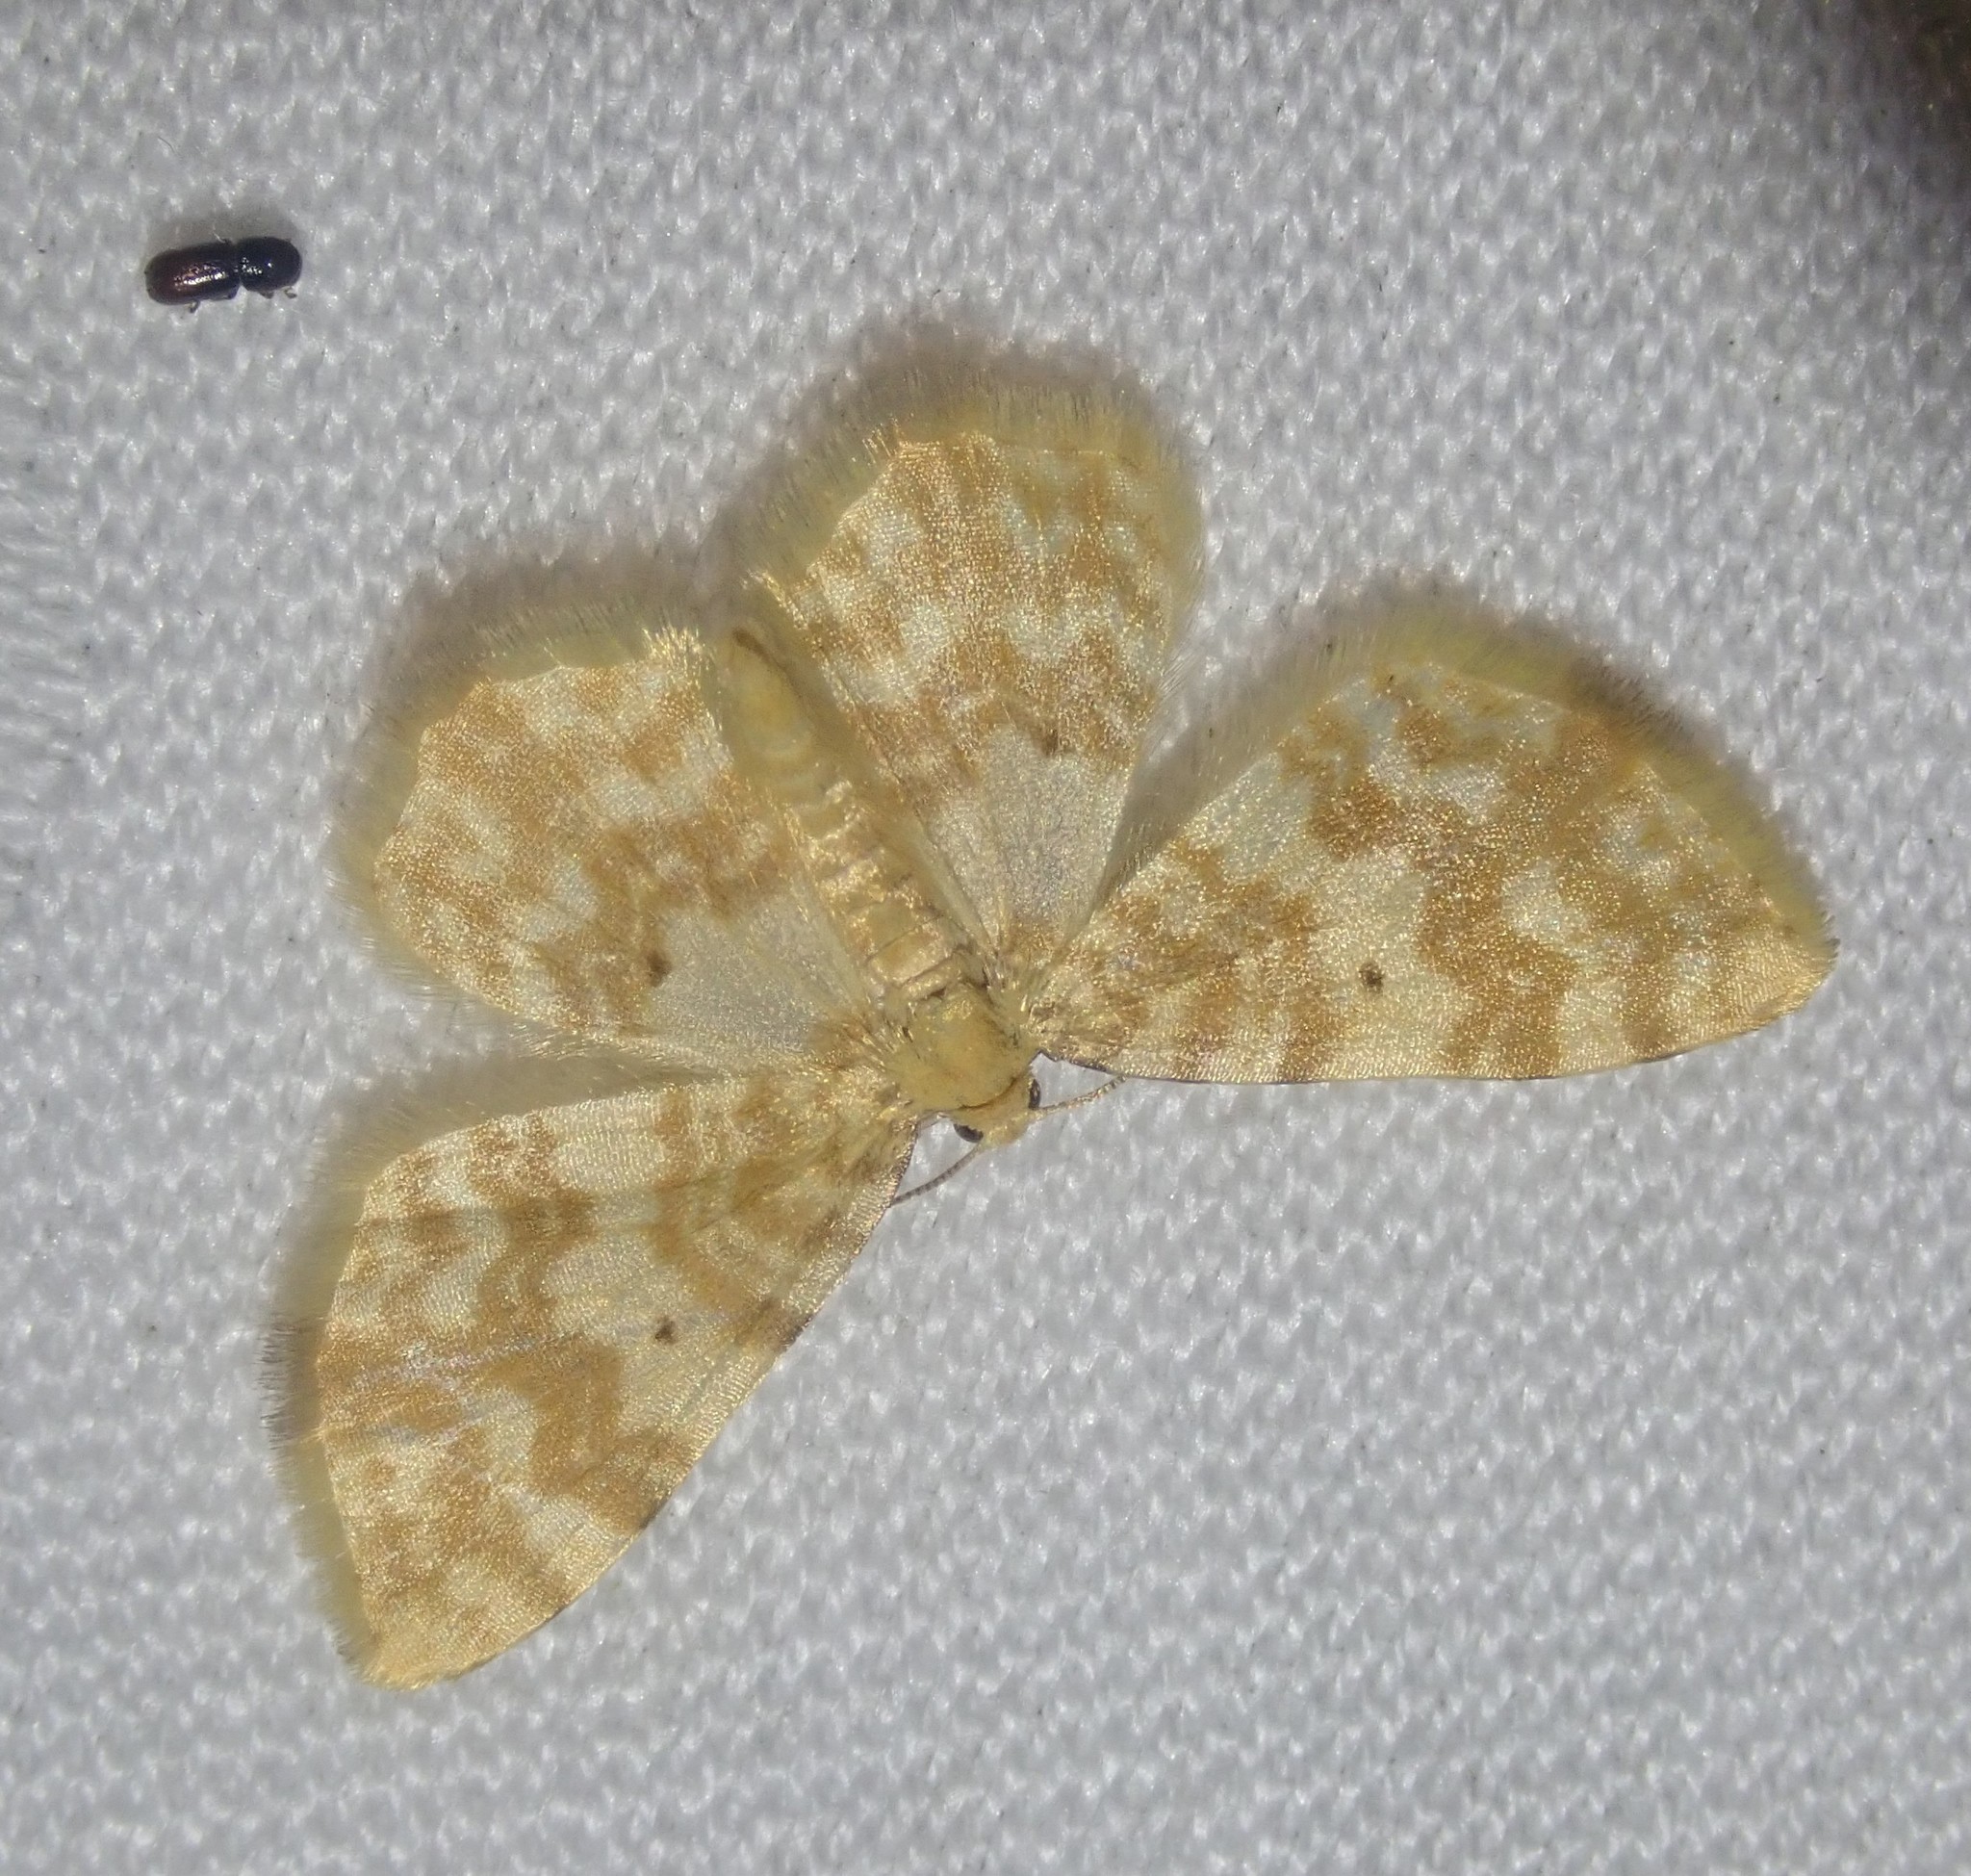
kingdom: Animalia
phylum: Arthropoda
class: Insecta
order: Lepidoptera
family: Geometridae
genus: Hydrelia
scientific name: Hydrelia flammeolaria
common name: Small yellow wave
